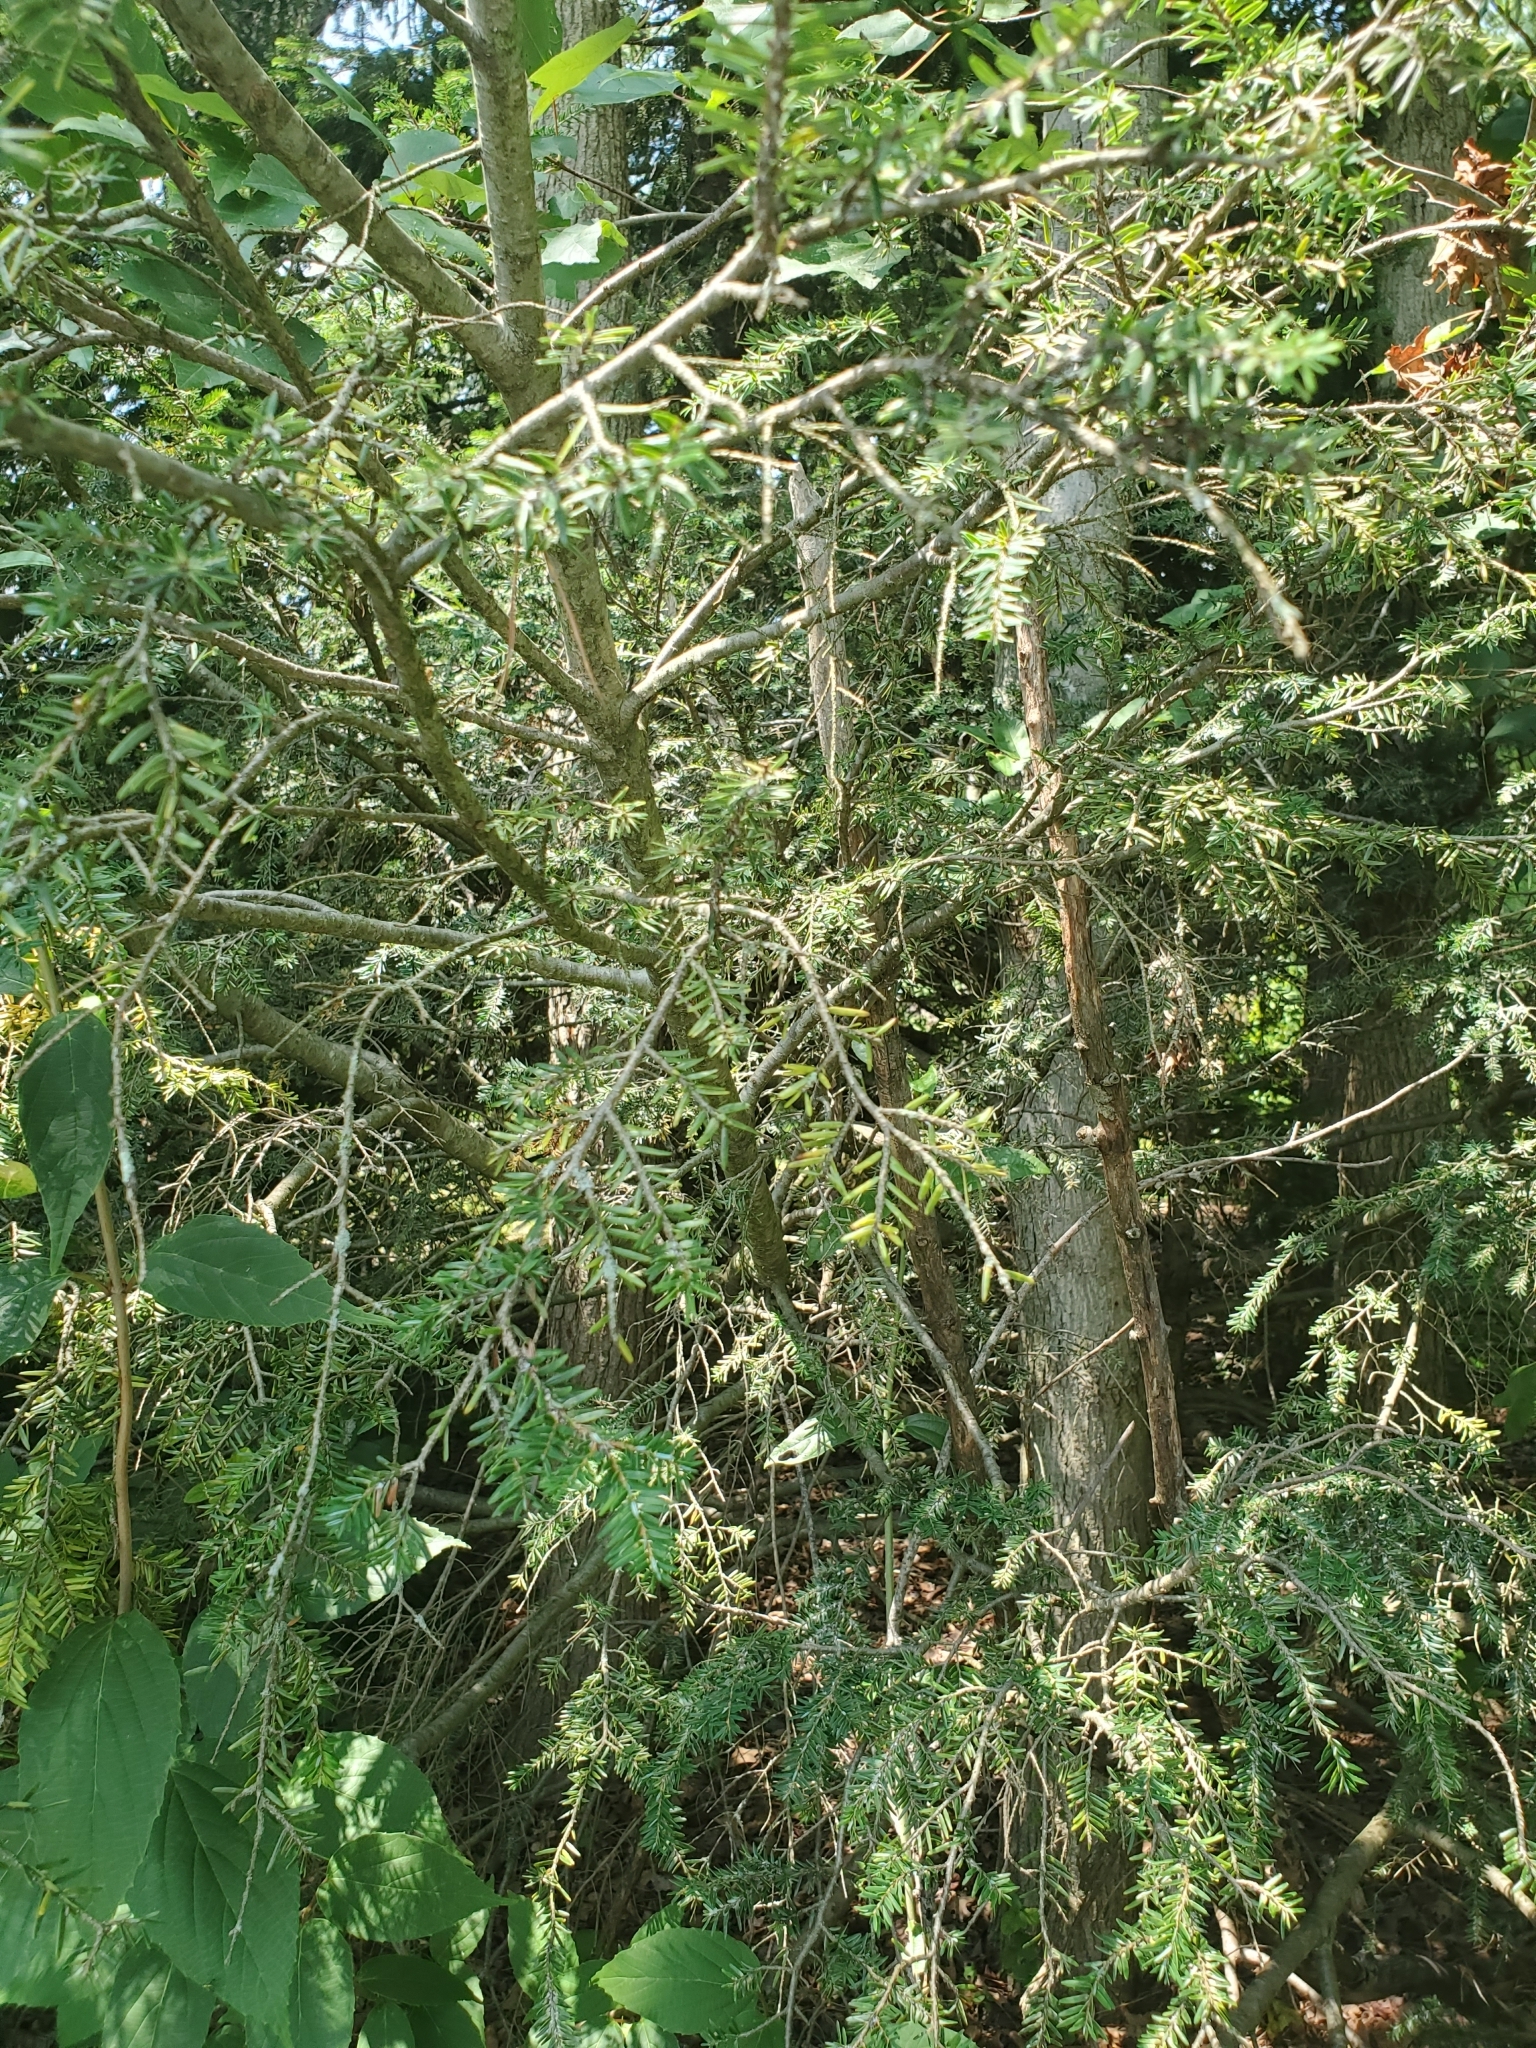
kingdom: Plantae
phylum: Tracheophyta
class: Pinopsida
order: Pinales
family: Pinaceae
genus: Tsuga
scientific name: Tsuga canadensis
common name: Eastern hemlock
